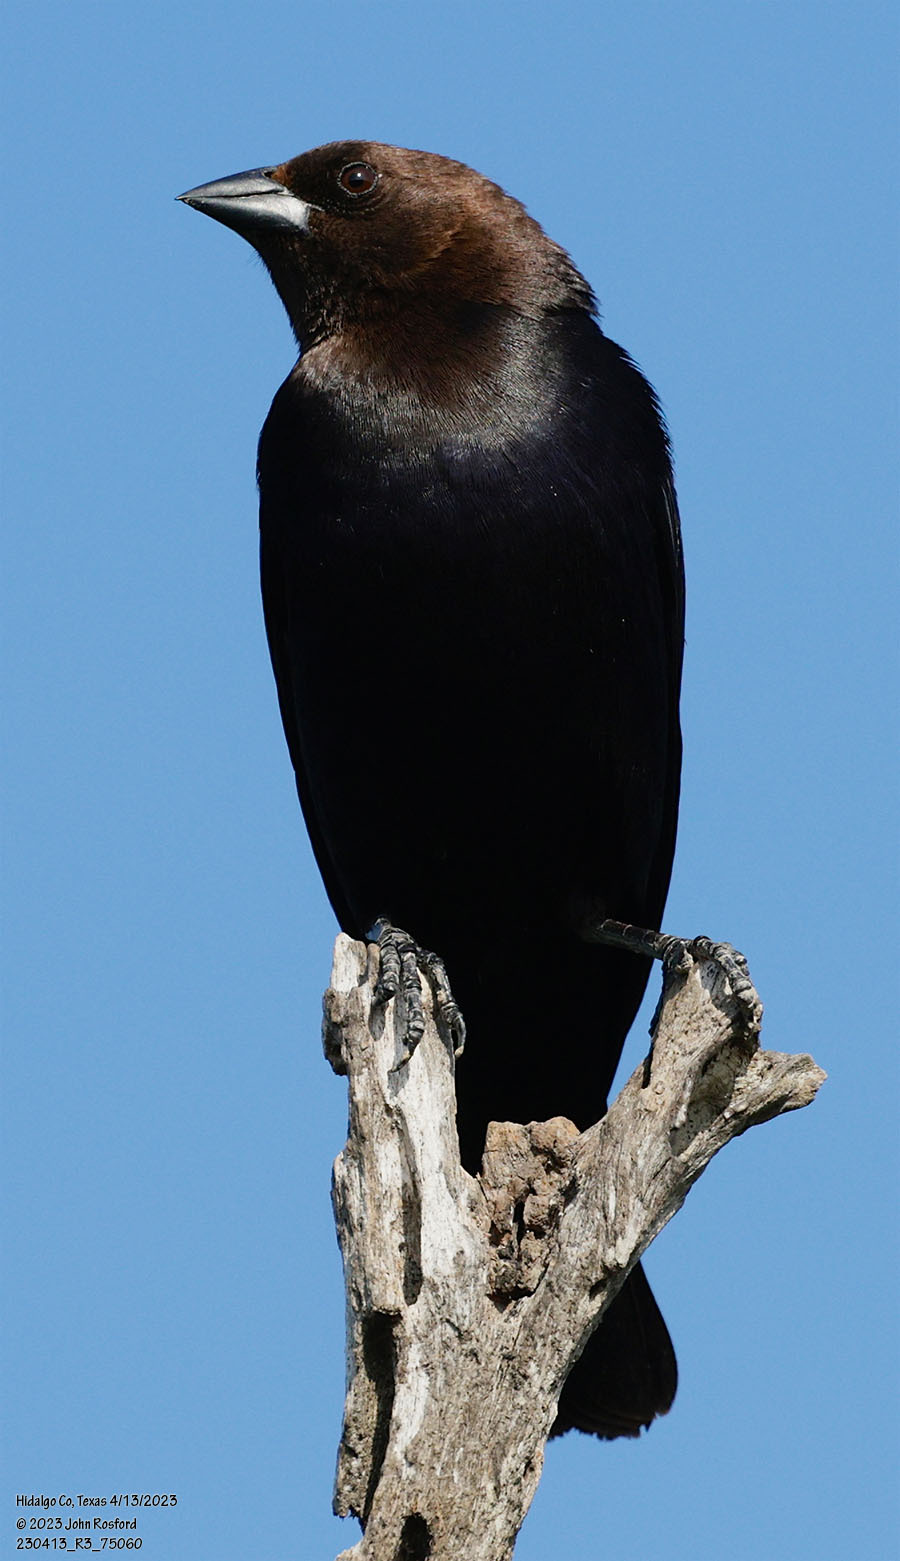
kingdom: Animalia
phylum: Chordata
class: Aves
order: Passeriformes
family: Icteridae
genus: Molothrus
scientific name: Molothrus ater
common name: Brown-headed cowbird
